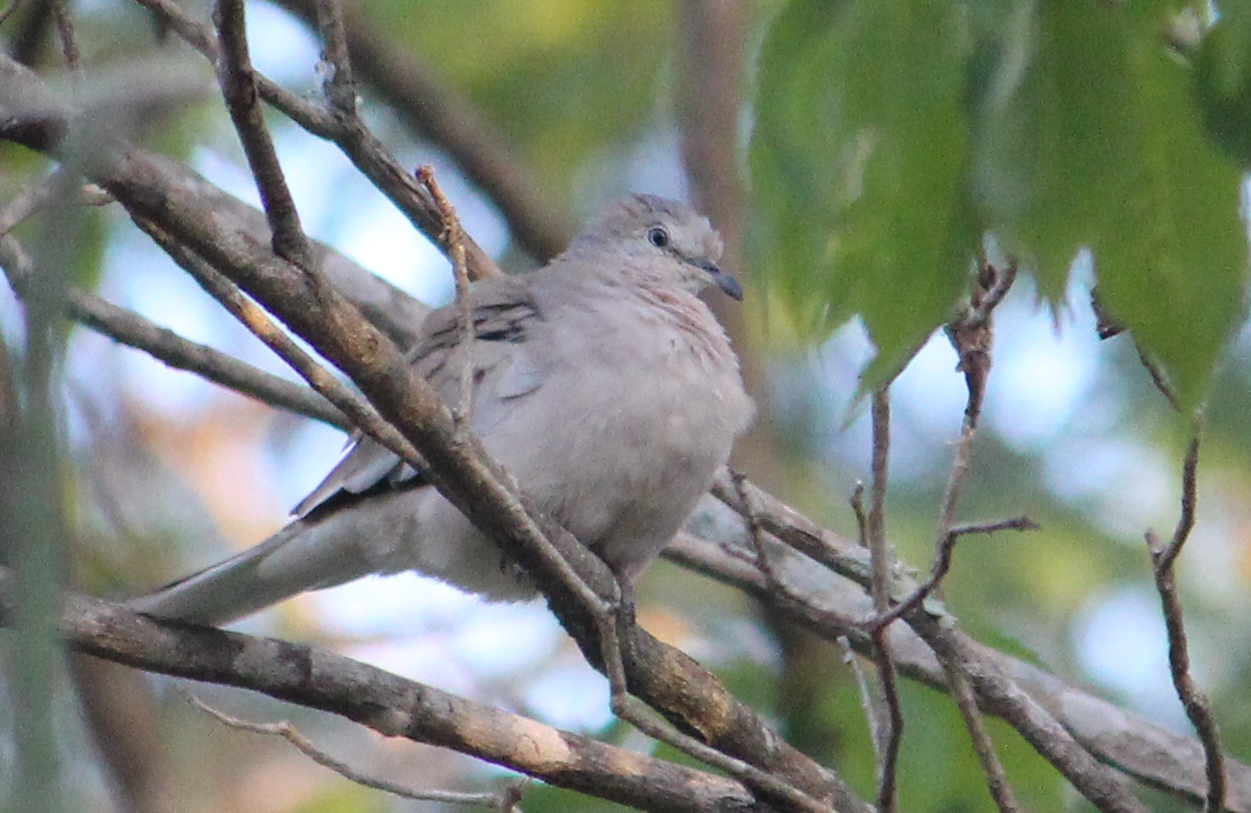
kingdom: Animalia
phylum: Chordata
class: Aves
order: Columbiformes
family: Columbidae
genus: Columbina
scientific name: Columbina picui
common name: Picui ground dove
